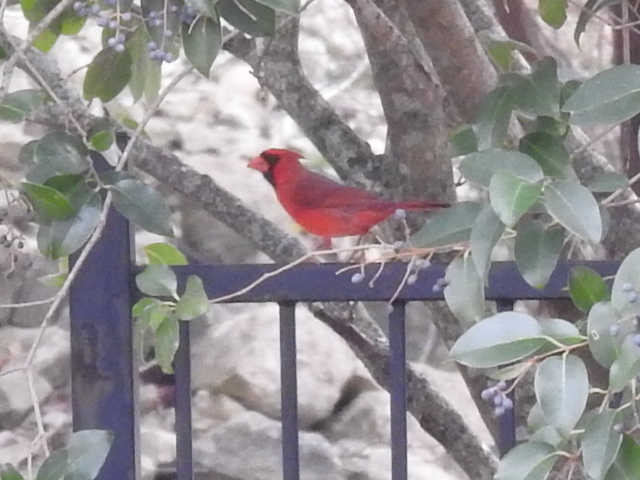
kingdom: Animalia
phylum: Chordata
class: Aves
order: Passeriformes
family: Cardinalidae
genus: Cardinalis
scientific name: Cardinalis cardinalis
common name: Northern cardinal
